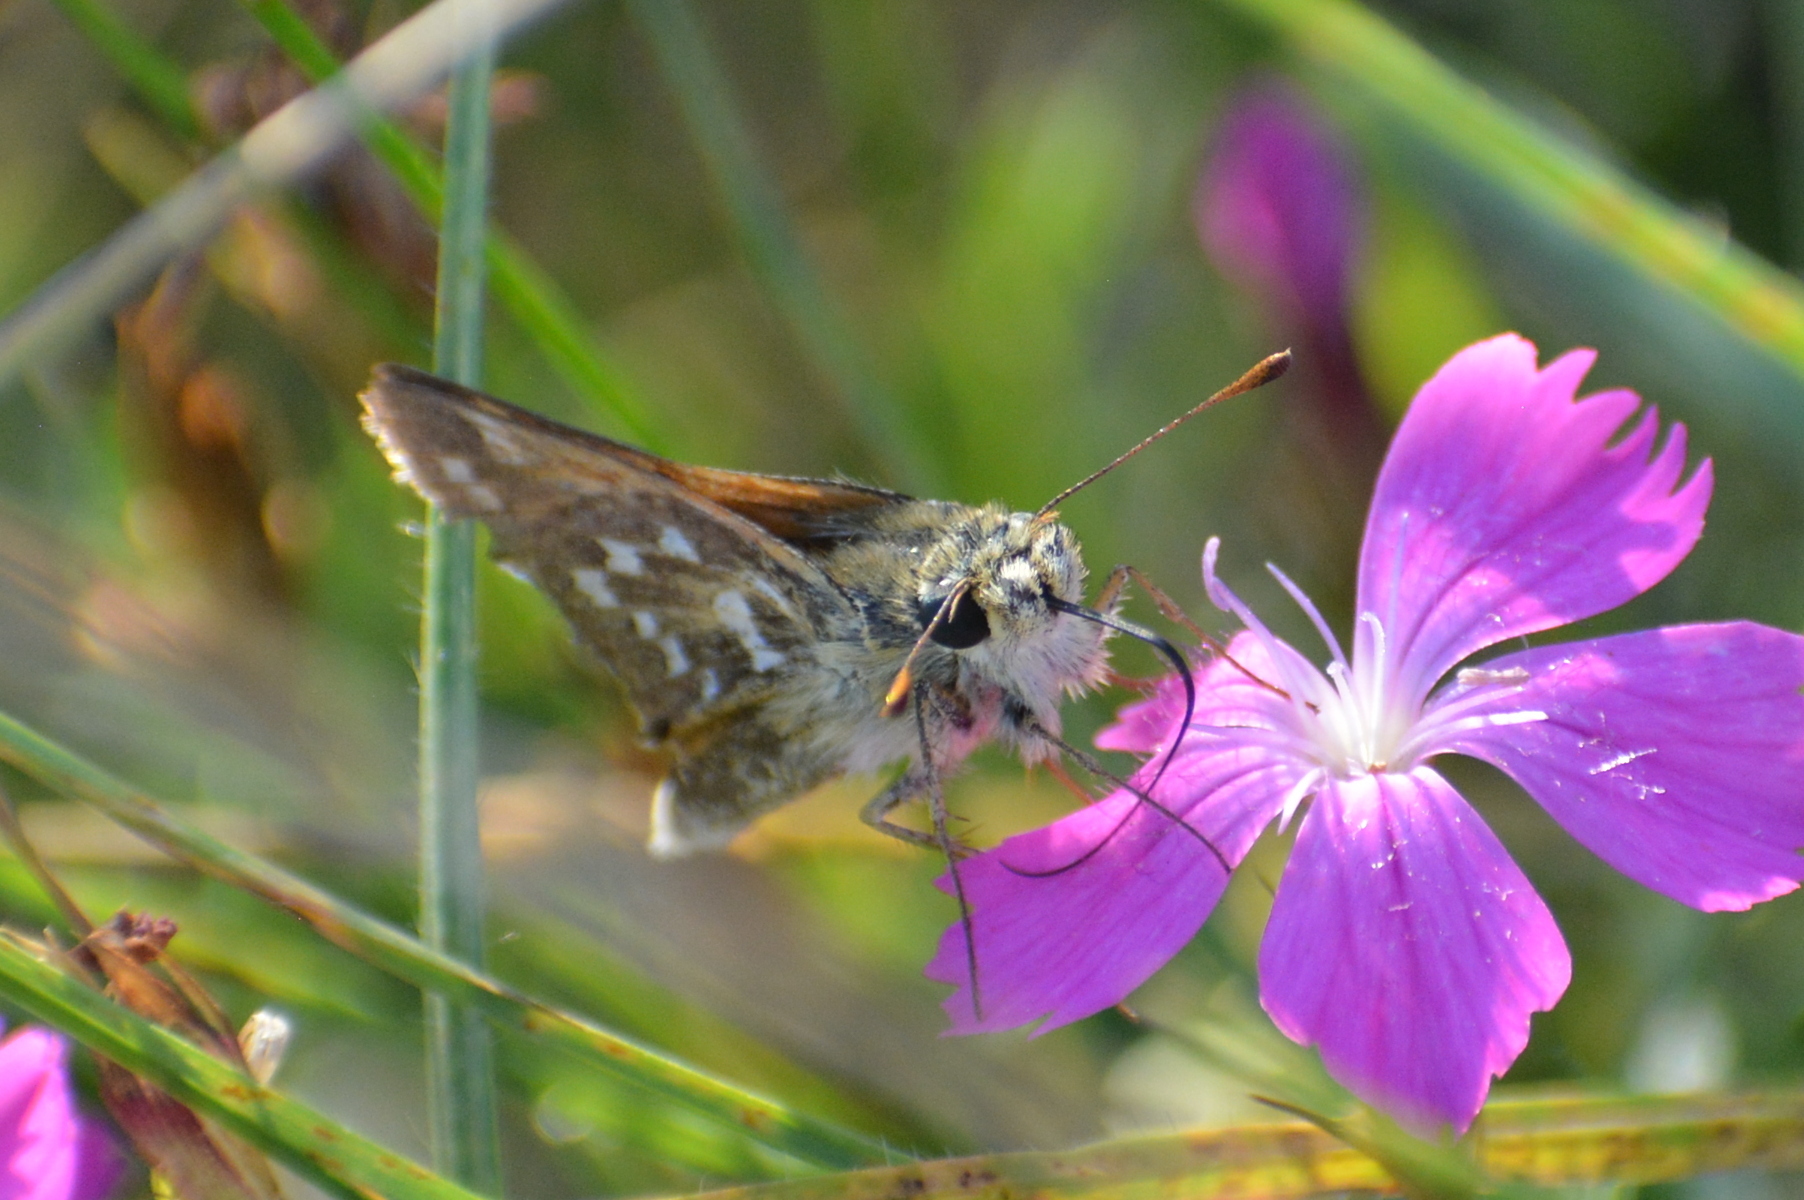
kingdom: Animalia
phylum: Arthropoda
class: Insecta
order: Lepidoptera
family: Hesperiidae
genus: Hesperia
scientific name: Hesperia comma
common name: Common branded skipper
